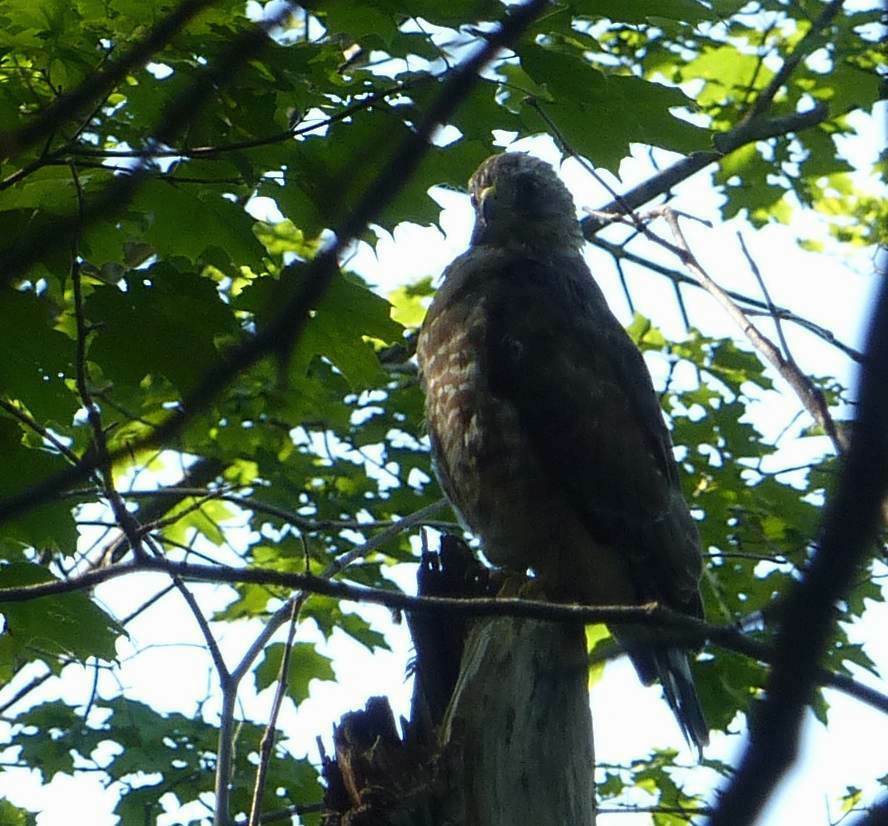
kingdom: Animalia
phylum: Chordata
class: Aves
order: Accipitriformes
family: Accipitridae
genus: Buteo
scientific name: Buteo platypterus
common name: Broad-winged hawk
